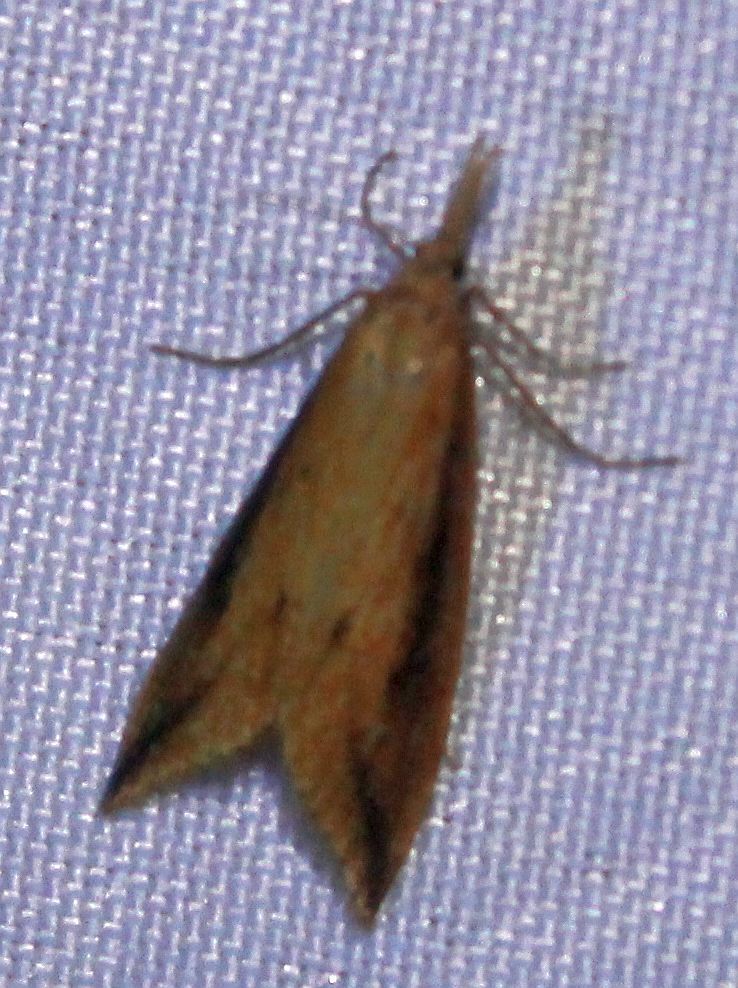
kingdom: Animalia
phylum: Arthropoda
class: Insecta
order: Lepidoptera
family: Crambidae
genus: Donacaula
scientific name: Donacaula forficella
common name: Pale water-veneer
